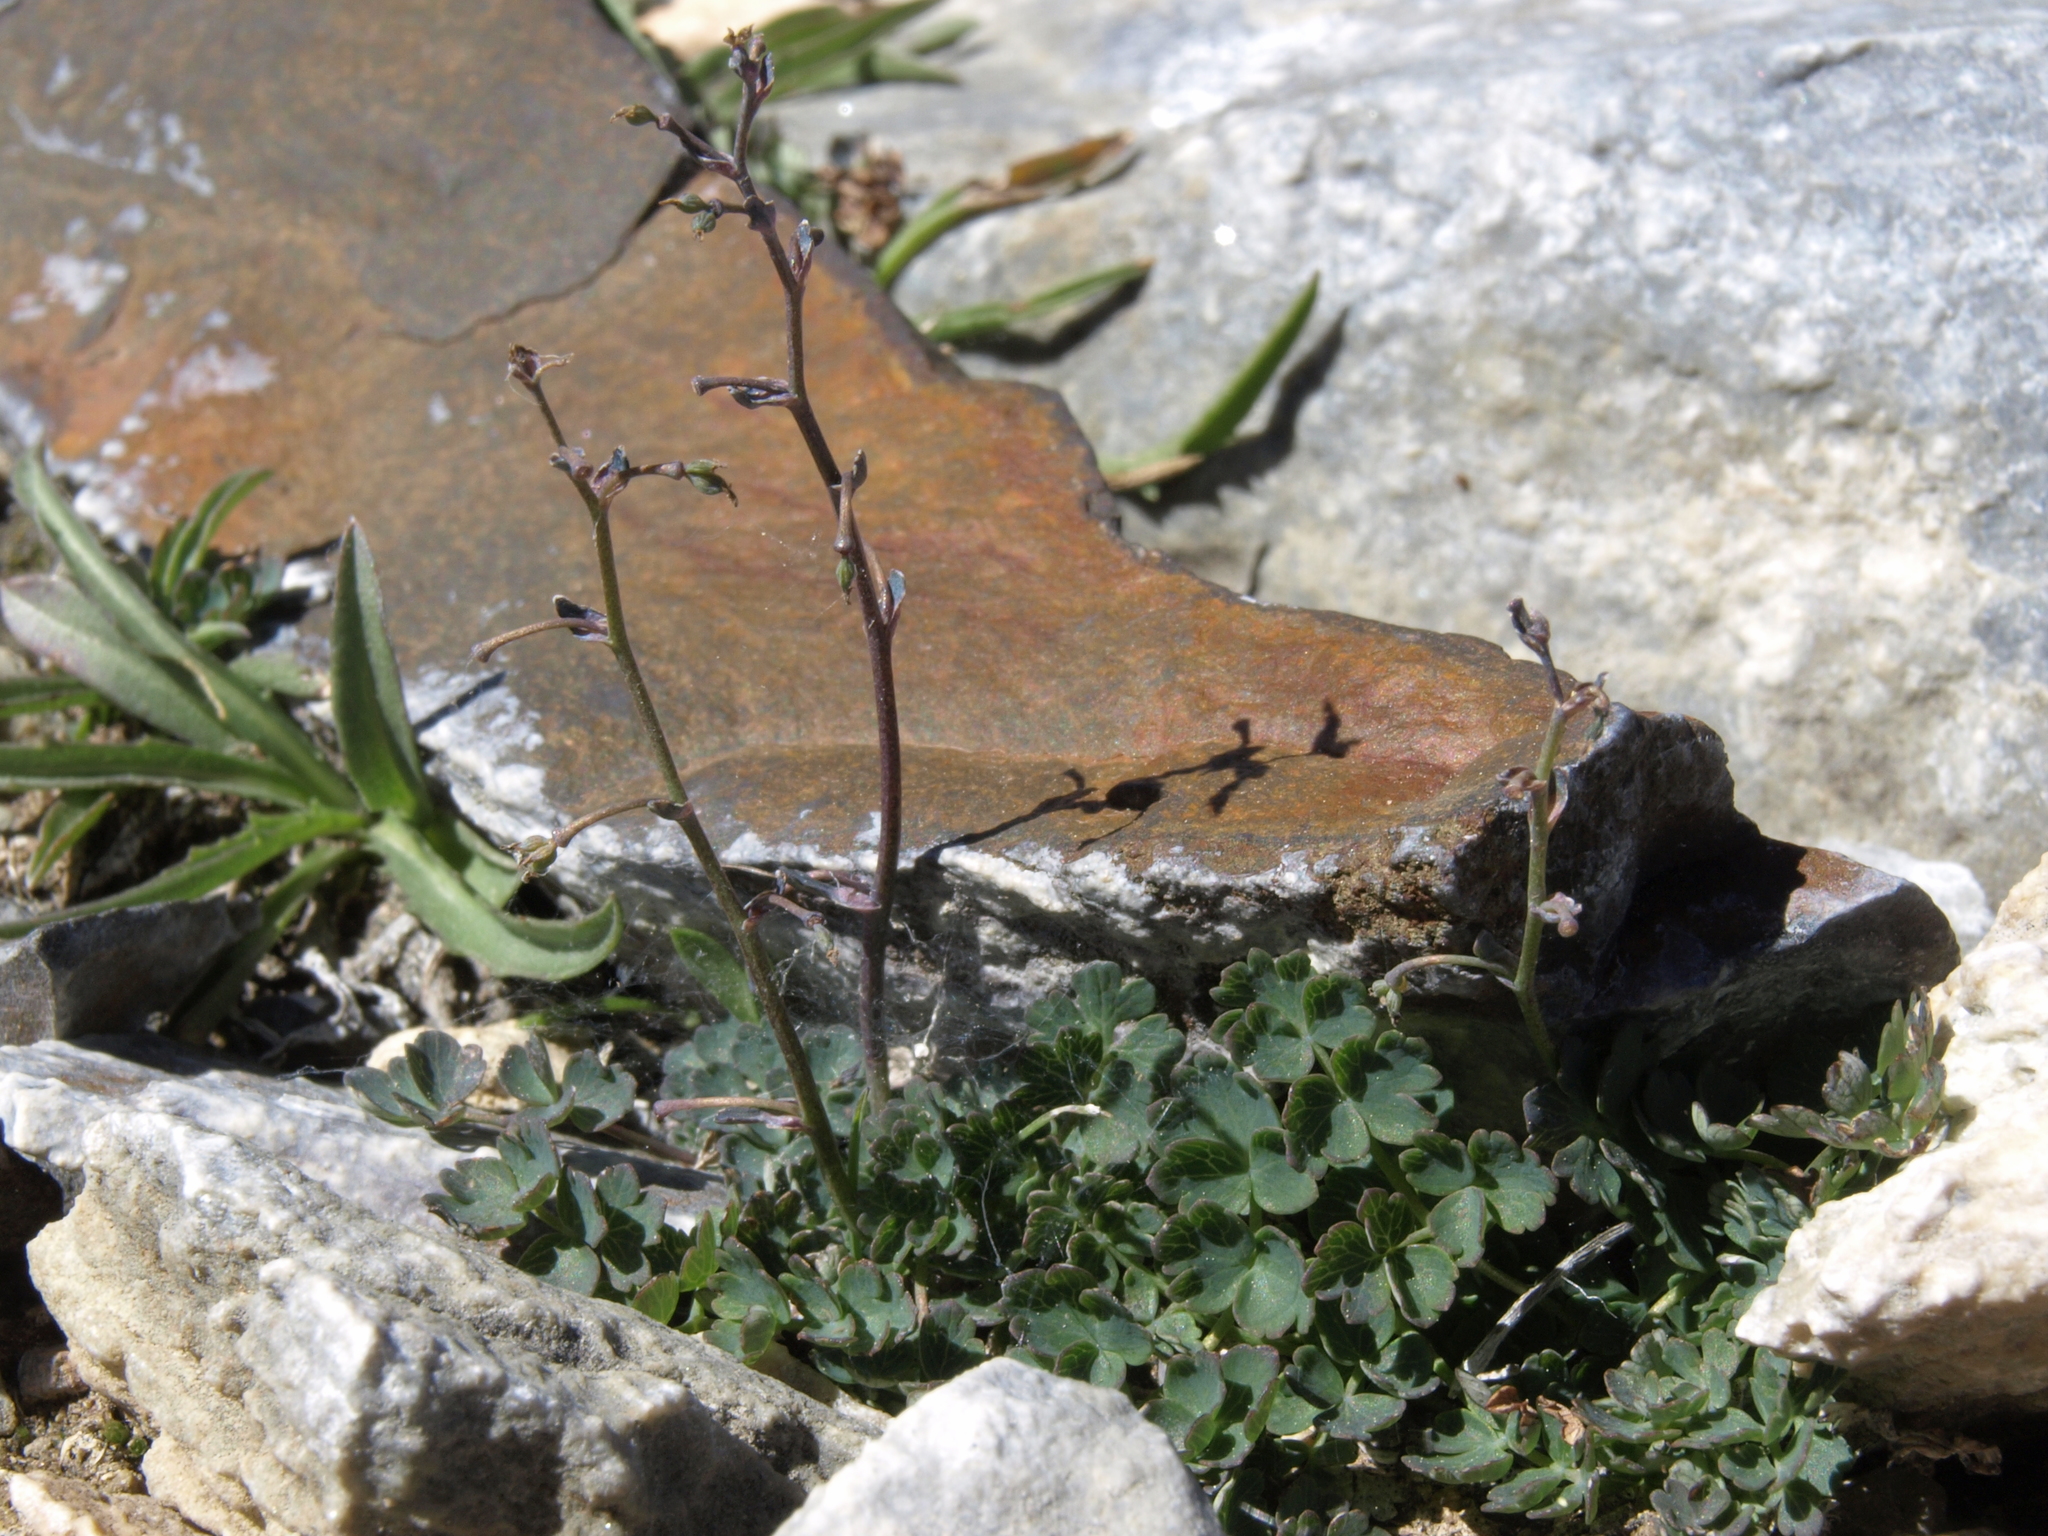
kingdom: Plantae
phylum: Tracheophyta
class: Magnoliopsida
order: Ranunculales
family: Ranunculaceae
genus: Thalictrum
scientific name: Thalictrum alpinum
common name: Alpine meadow-rue
